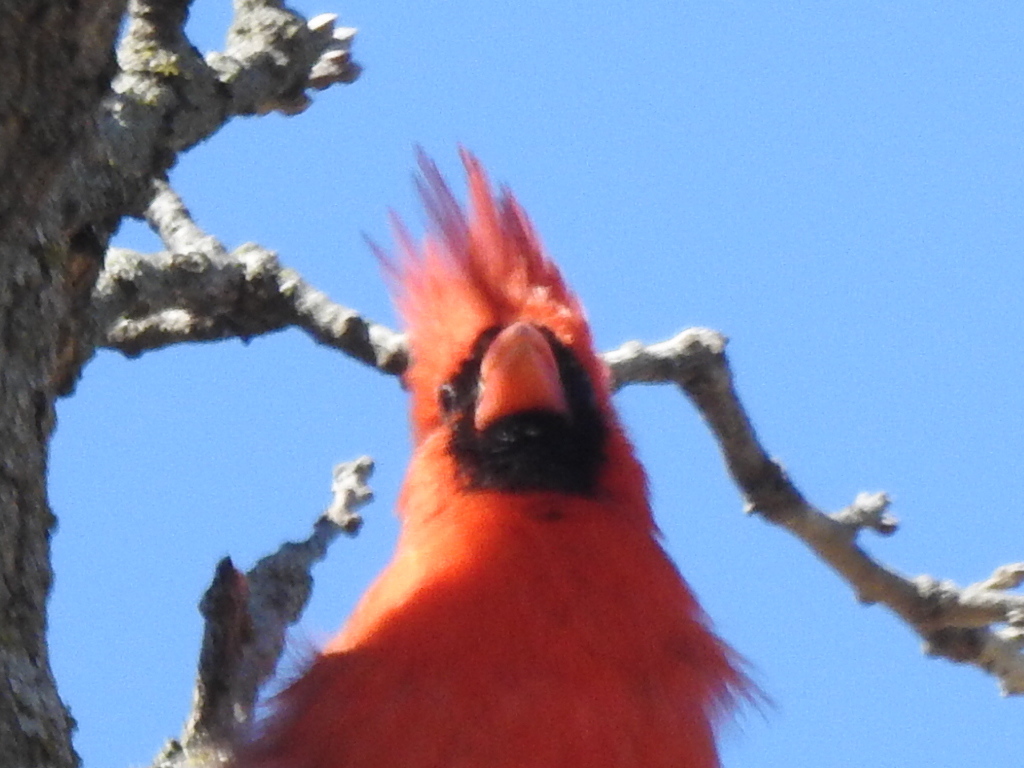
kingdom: Animalia
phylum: Chordata
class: Aves
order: Passeriformes
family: Cardinalidae
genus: Cardinalis
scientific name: Cardinalis cardinalis
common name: Northern cardinal
